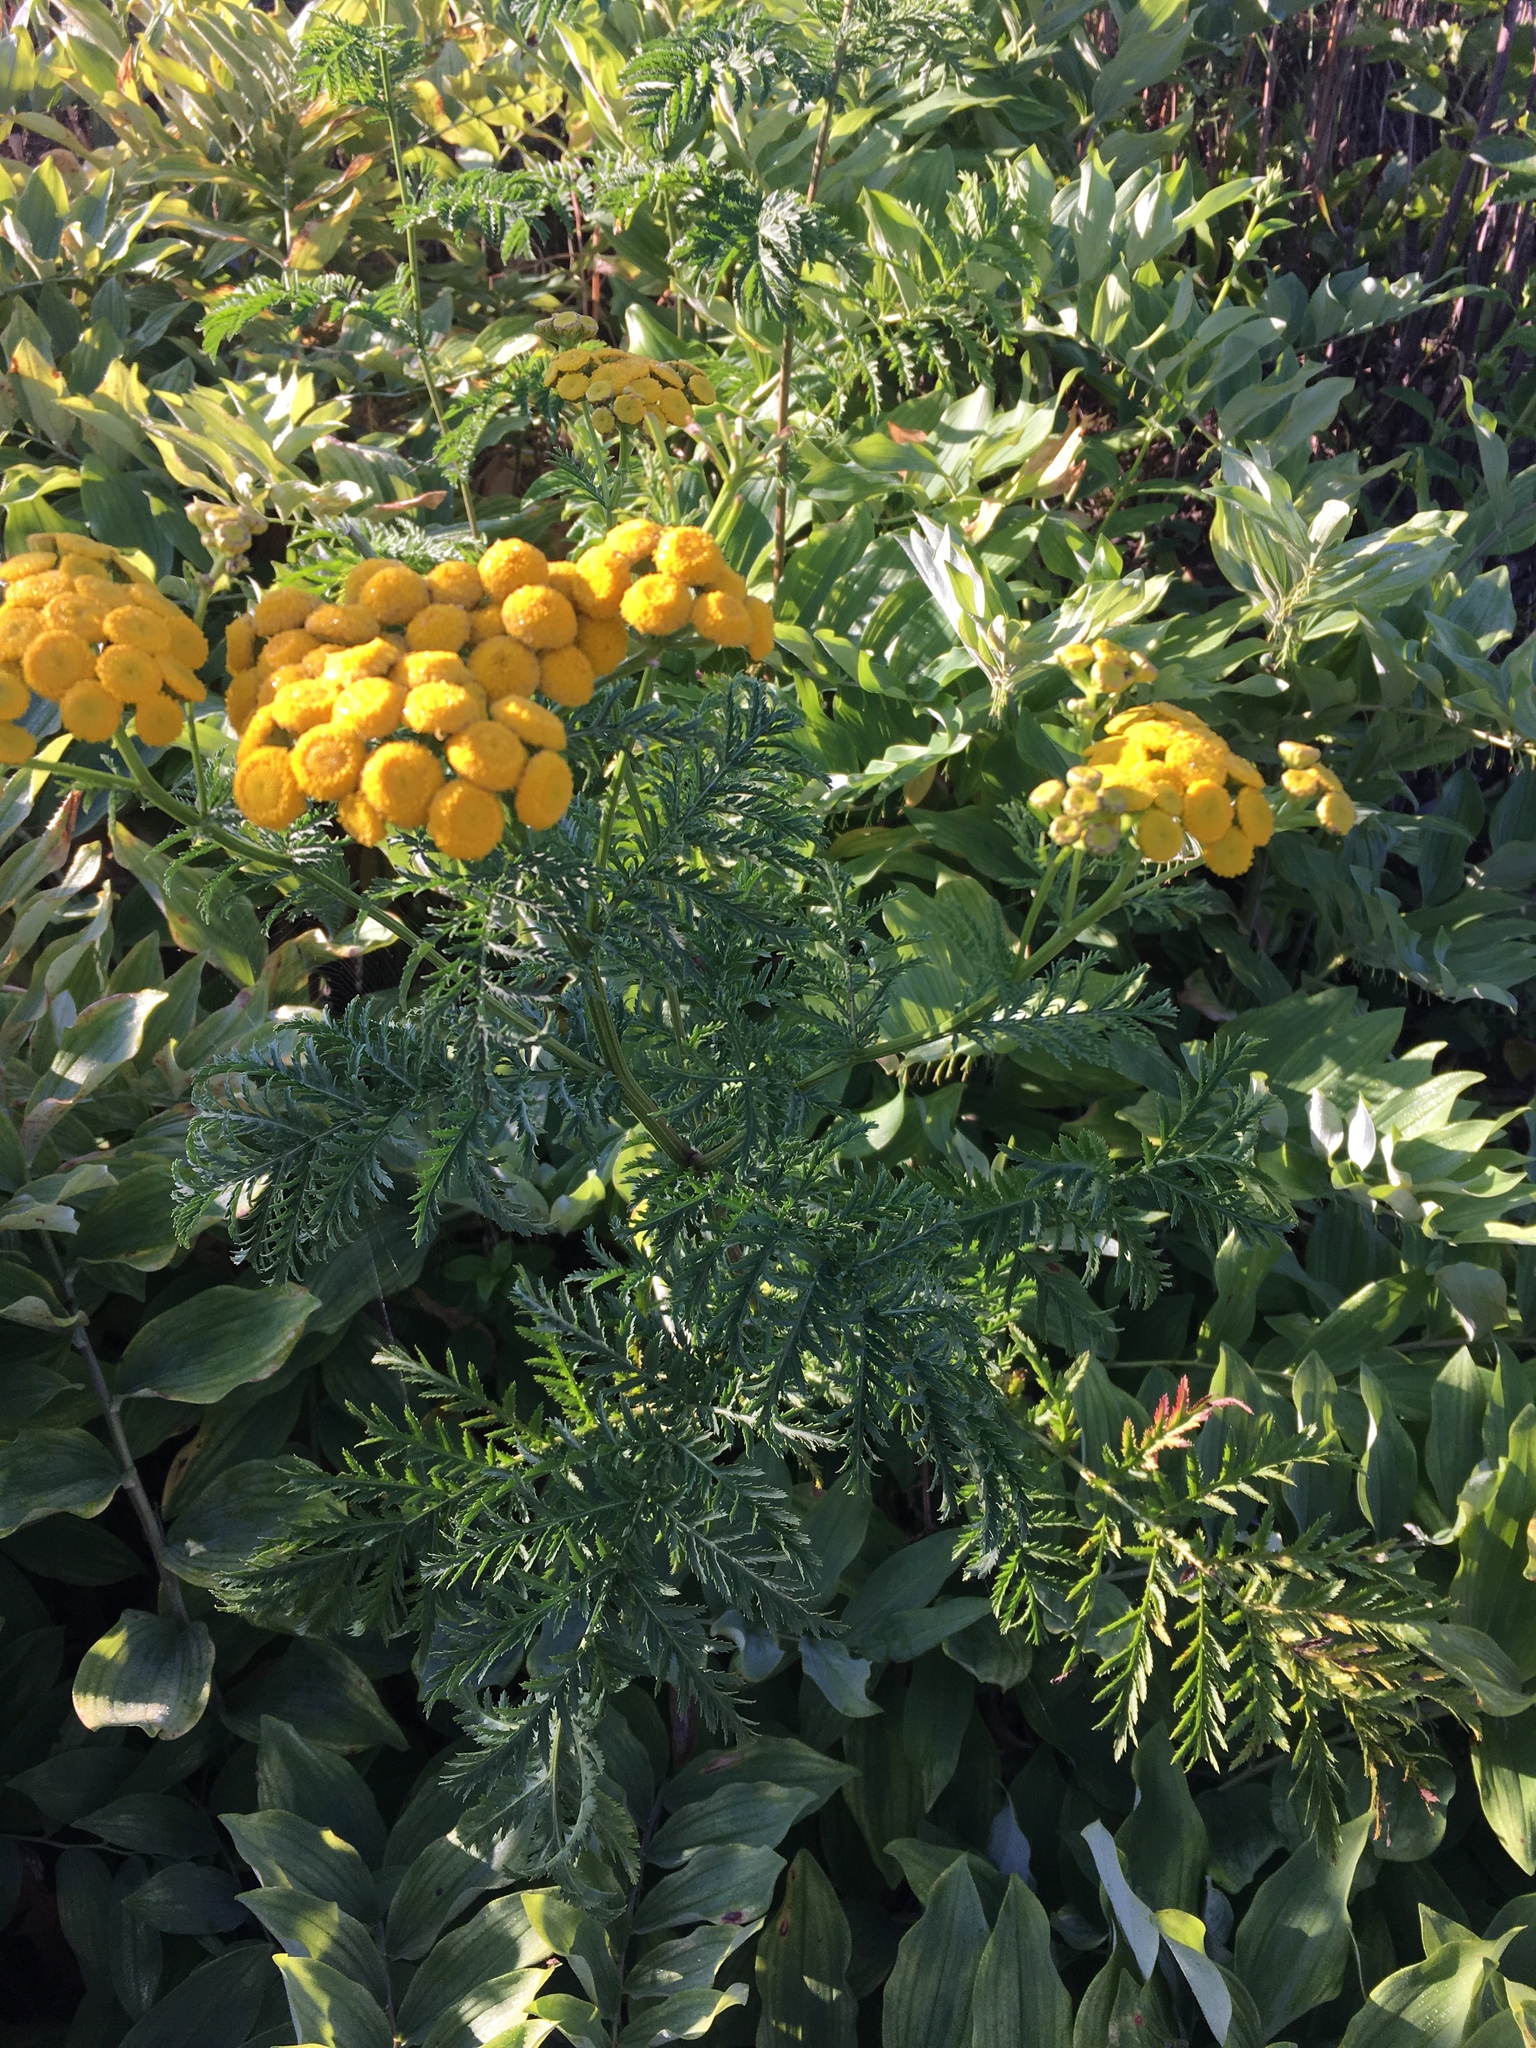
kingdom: Plantae
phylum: Tracheophyta
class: Magnoliopsida
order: Asterales
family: Asteraceae
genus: Tanacetum
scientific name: Tanacetum vulgare
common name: Common tansy
